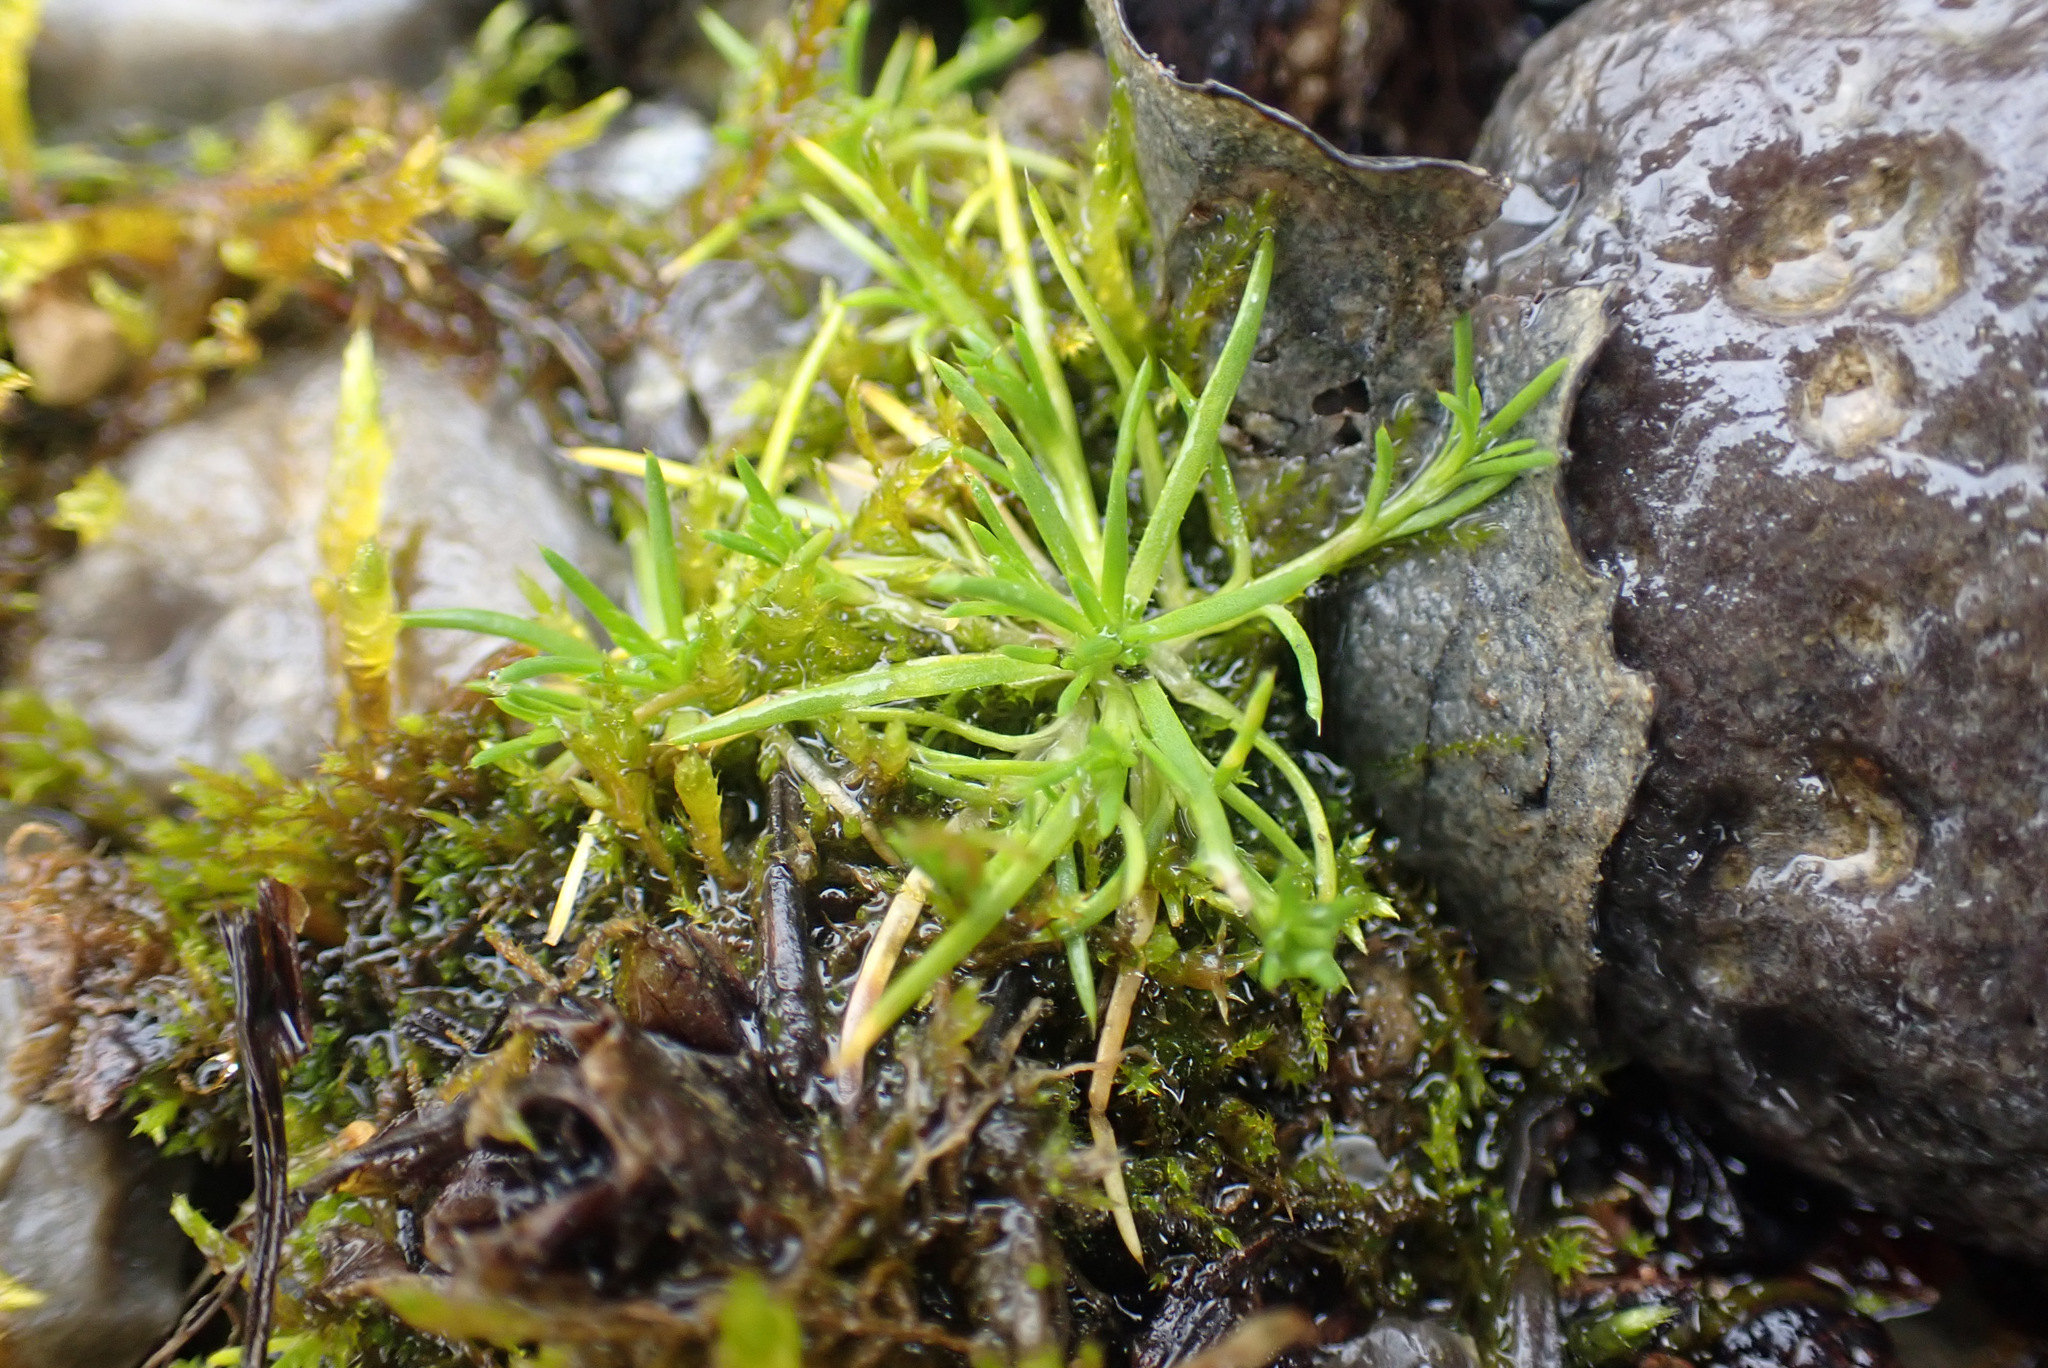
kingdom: Plantae
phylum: Tracheophyta
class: Magnoliopsida
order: Caryophyllales
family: Caryophyllaceae
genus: Sagina
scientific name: Sagina procumbens
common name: Procumbent pearlwort
